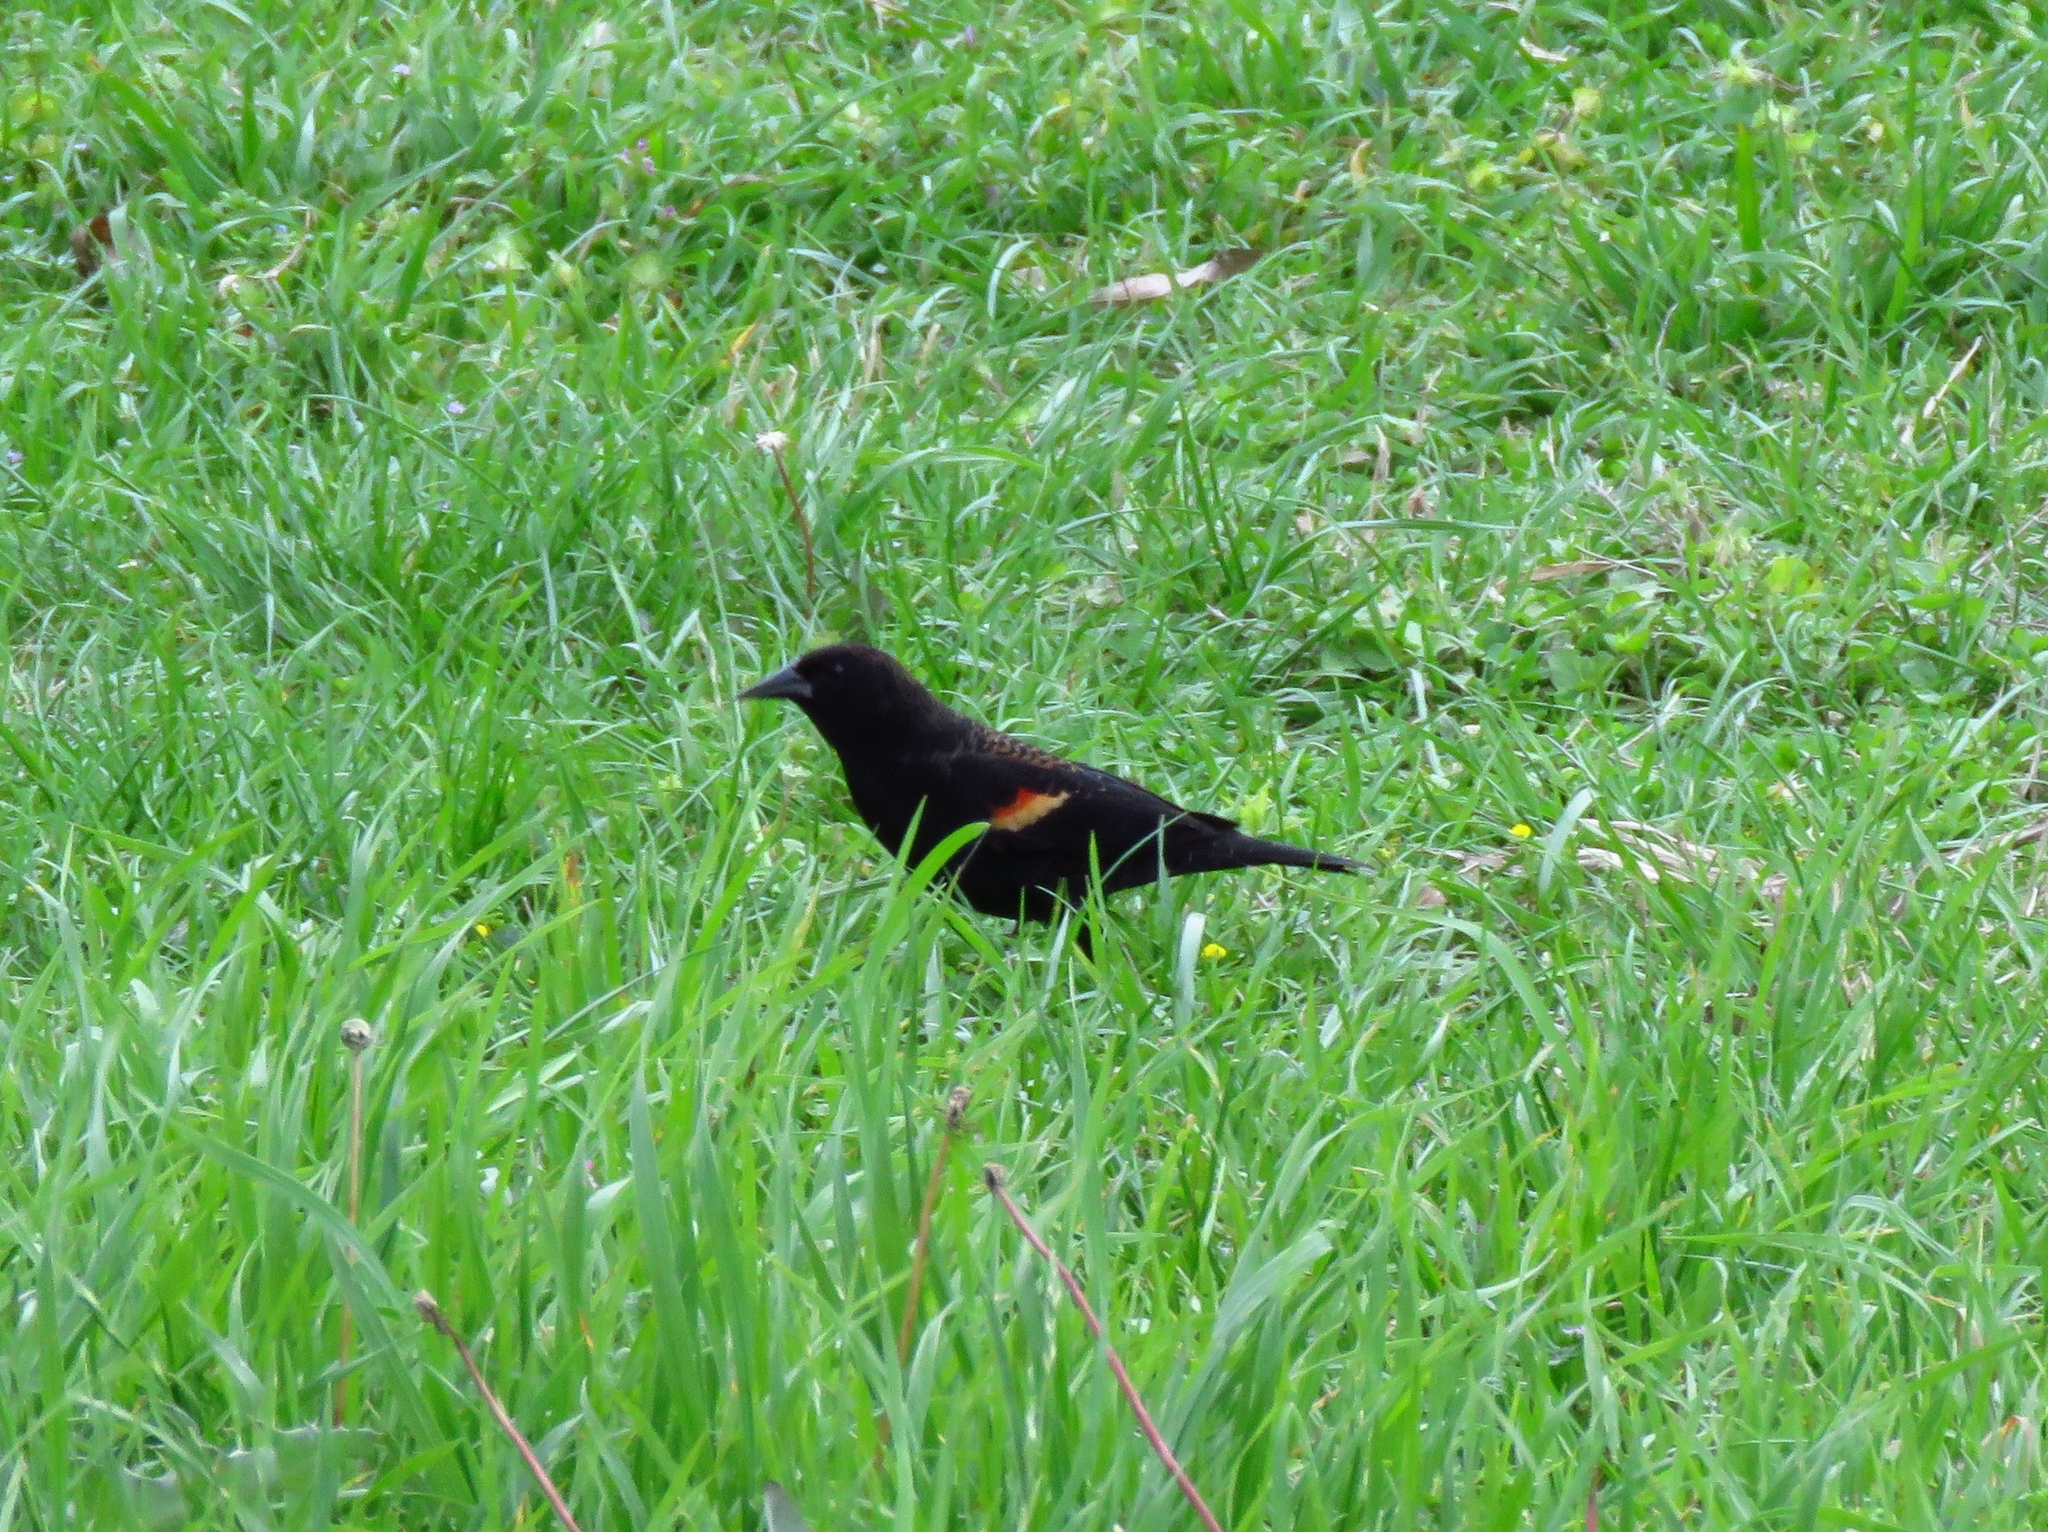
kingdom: Animalia
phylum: Chordata
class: Aves
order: Passeriformes
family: Icteridae
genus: Agelaius
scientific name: Agelaius phoeniceus
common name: Red-winged blackbird
